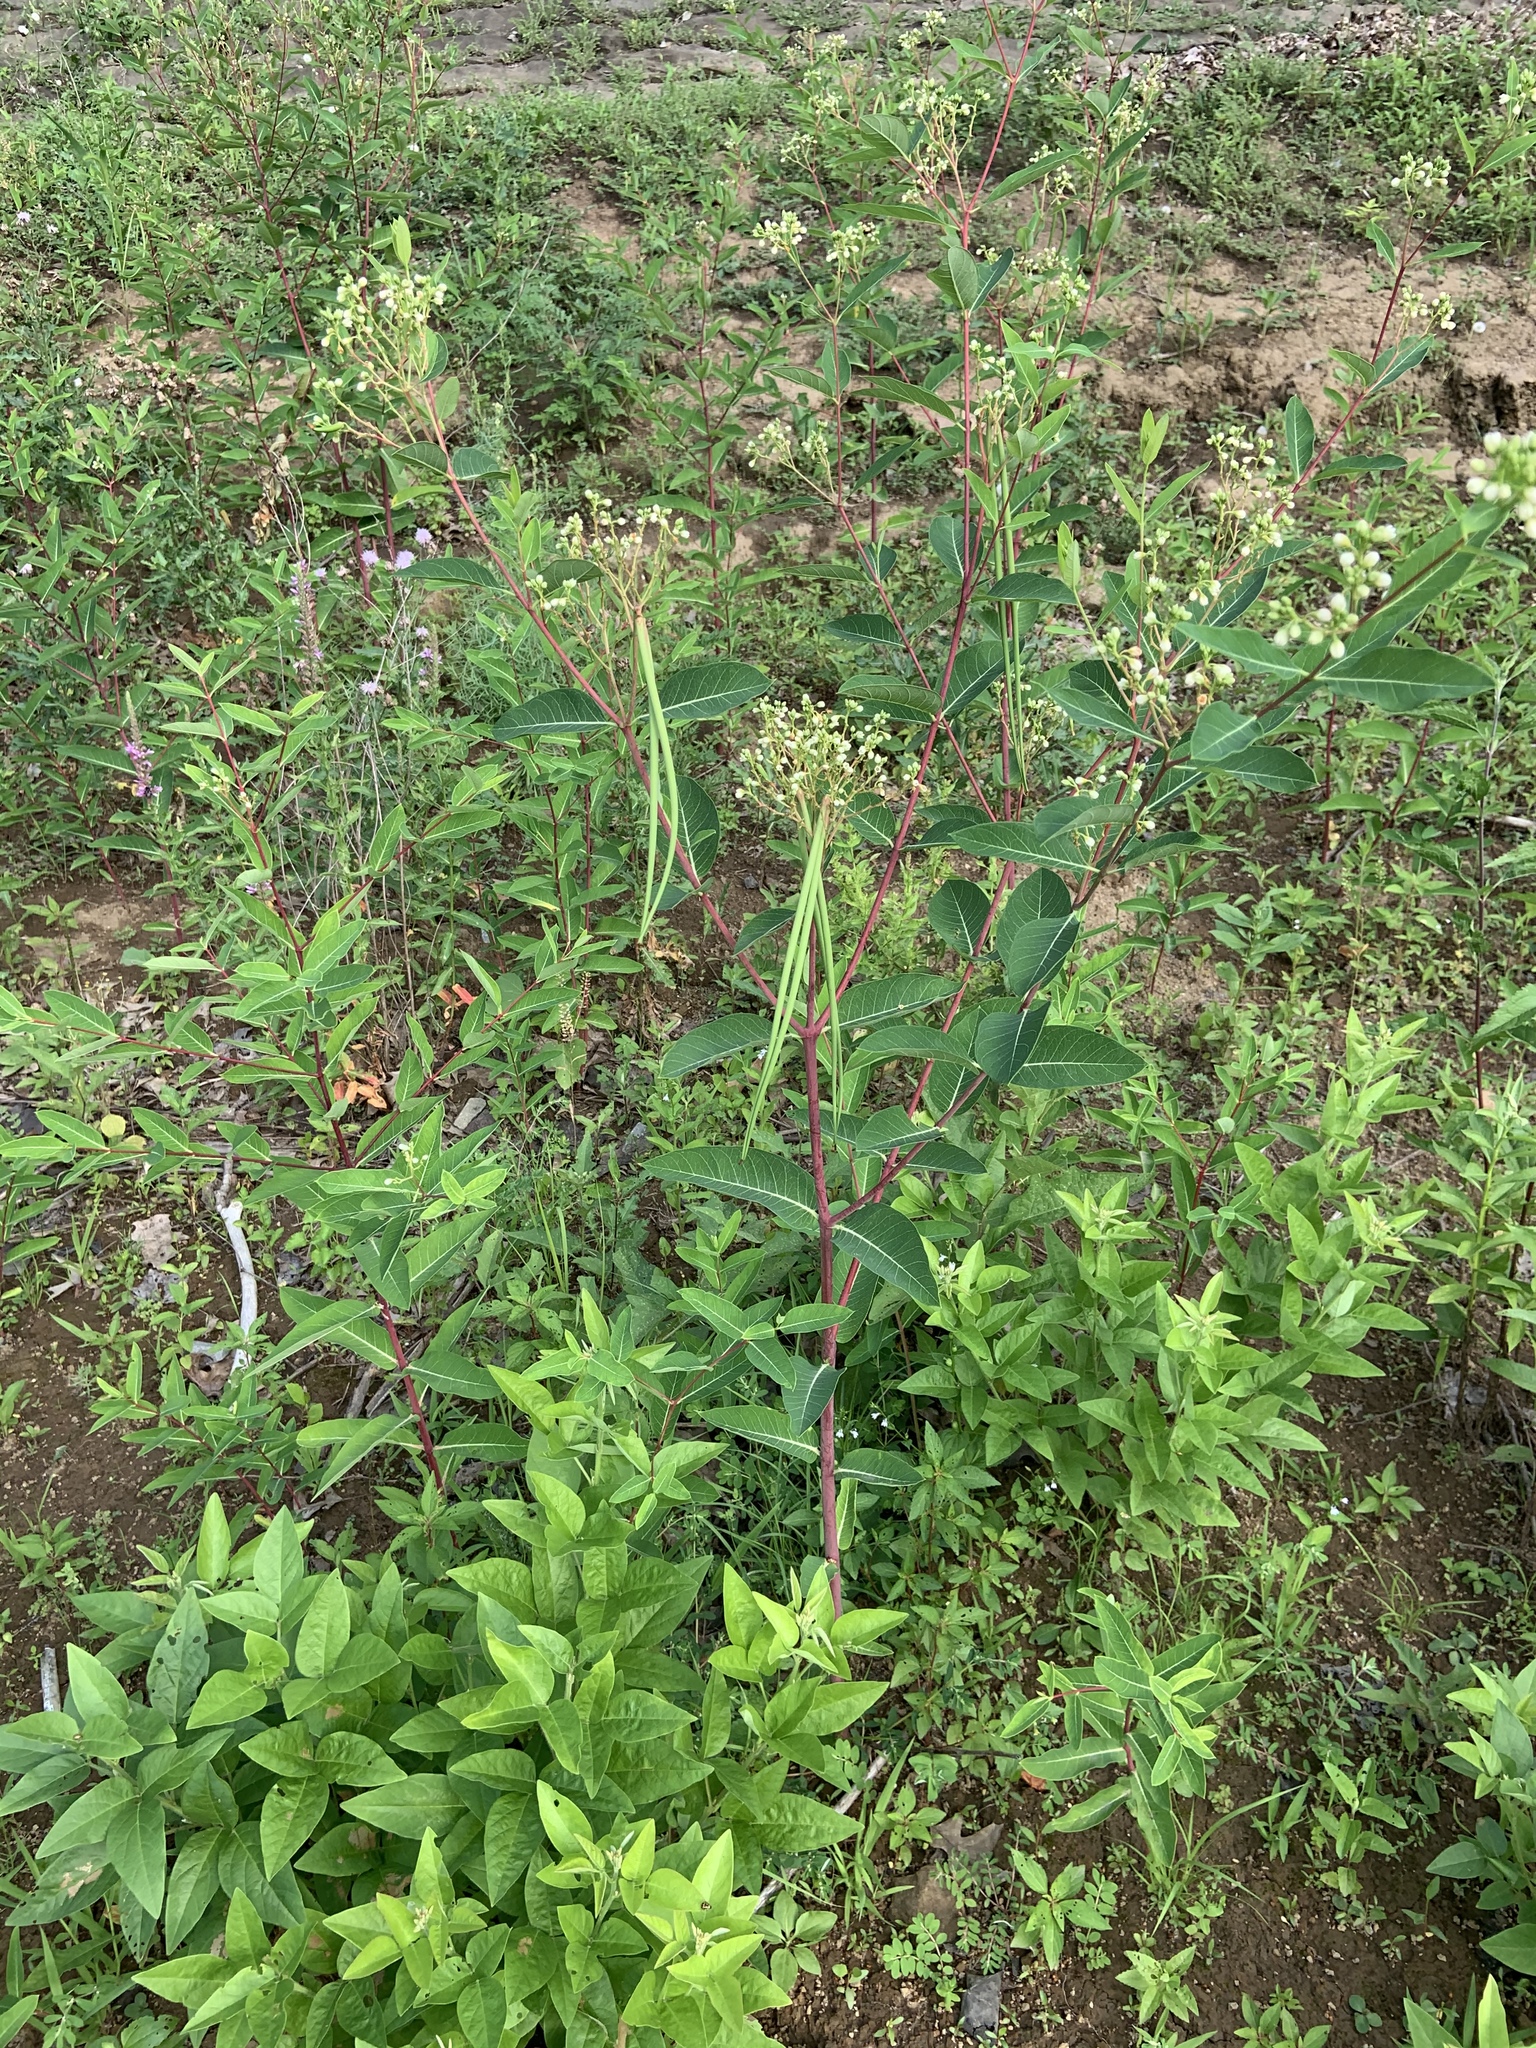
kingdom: Plantae
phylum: Tracheophyta
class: Magnoliopsida
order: Gentianales
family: Apocynaceae
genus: Apocynum
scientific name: Apocynum cannabinum
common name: Hemp dogbane
